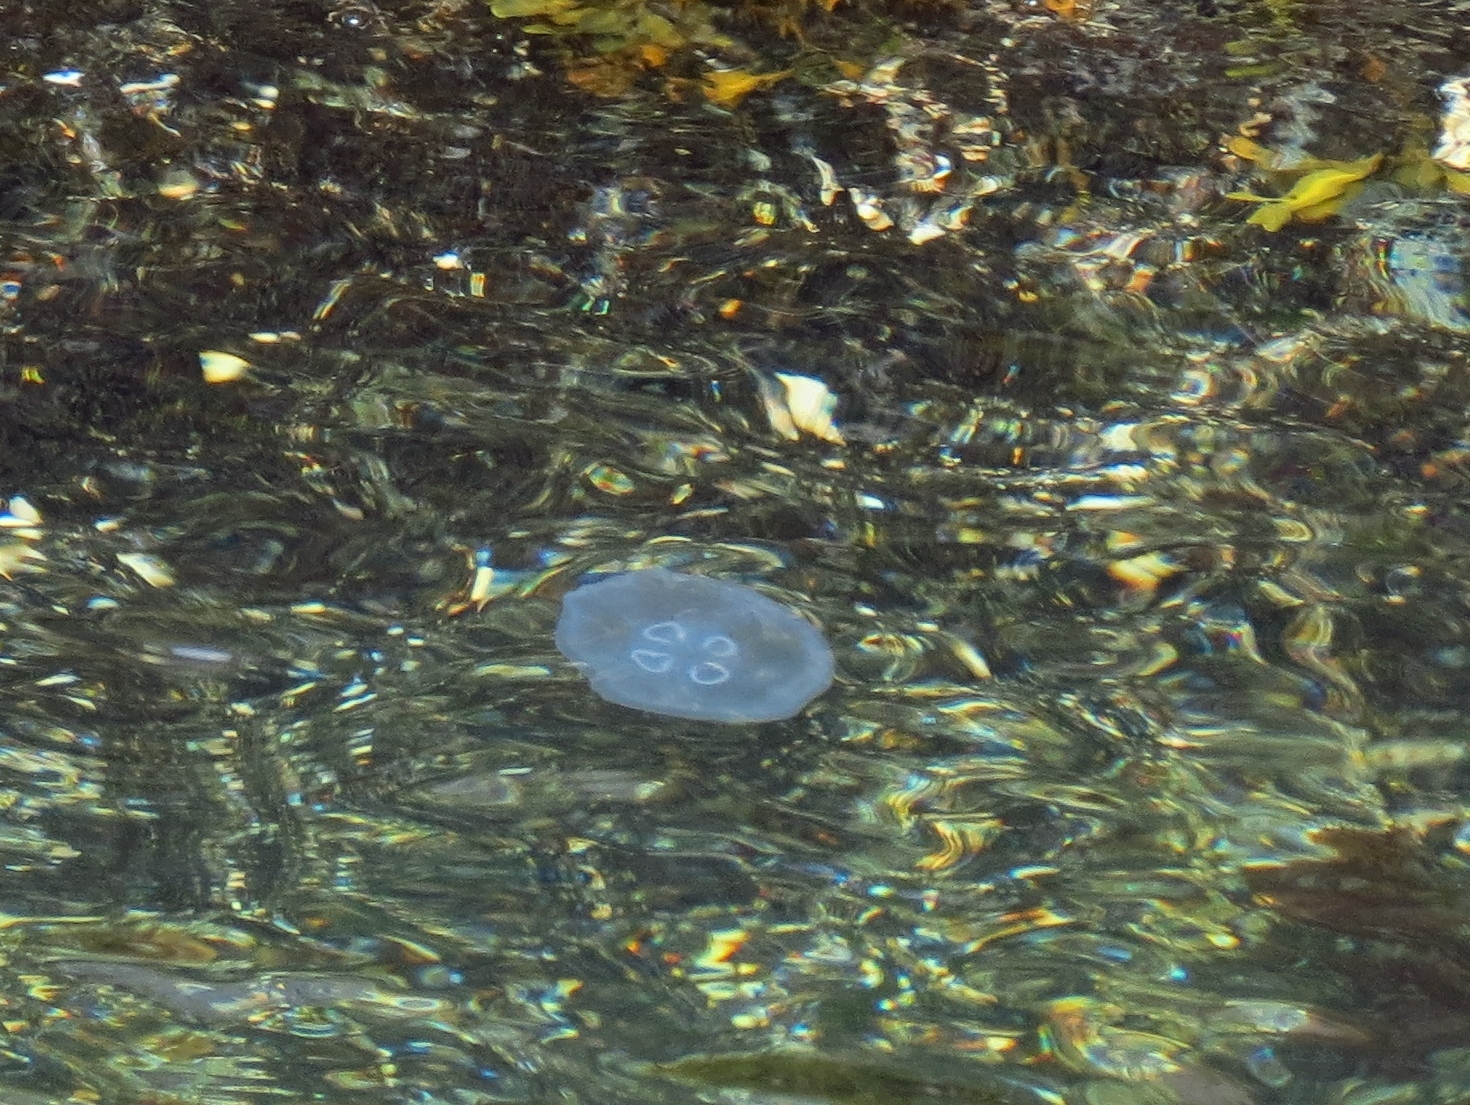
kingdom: Animalia
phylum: Cnidaria
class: Scyphozoa
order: Semaeostomeae
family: Ulmaridae
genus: Aurelia
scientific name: Aurelia labiata
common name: Pacific moon jelly
